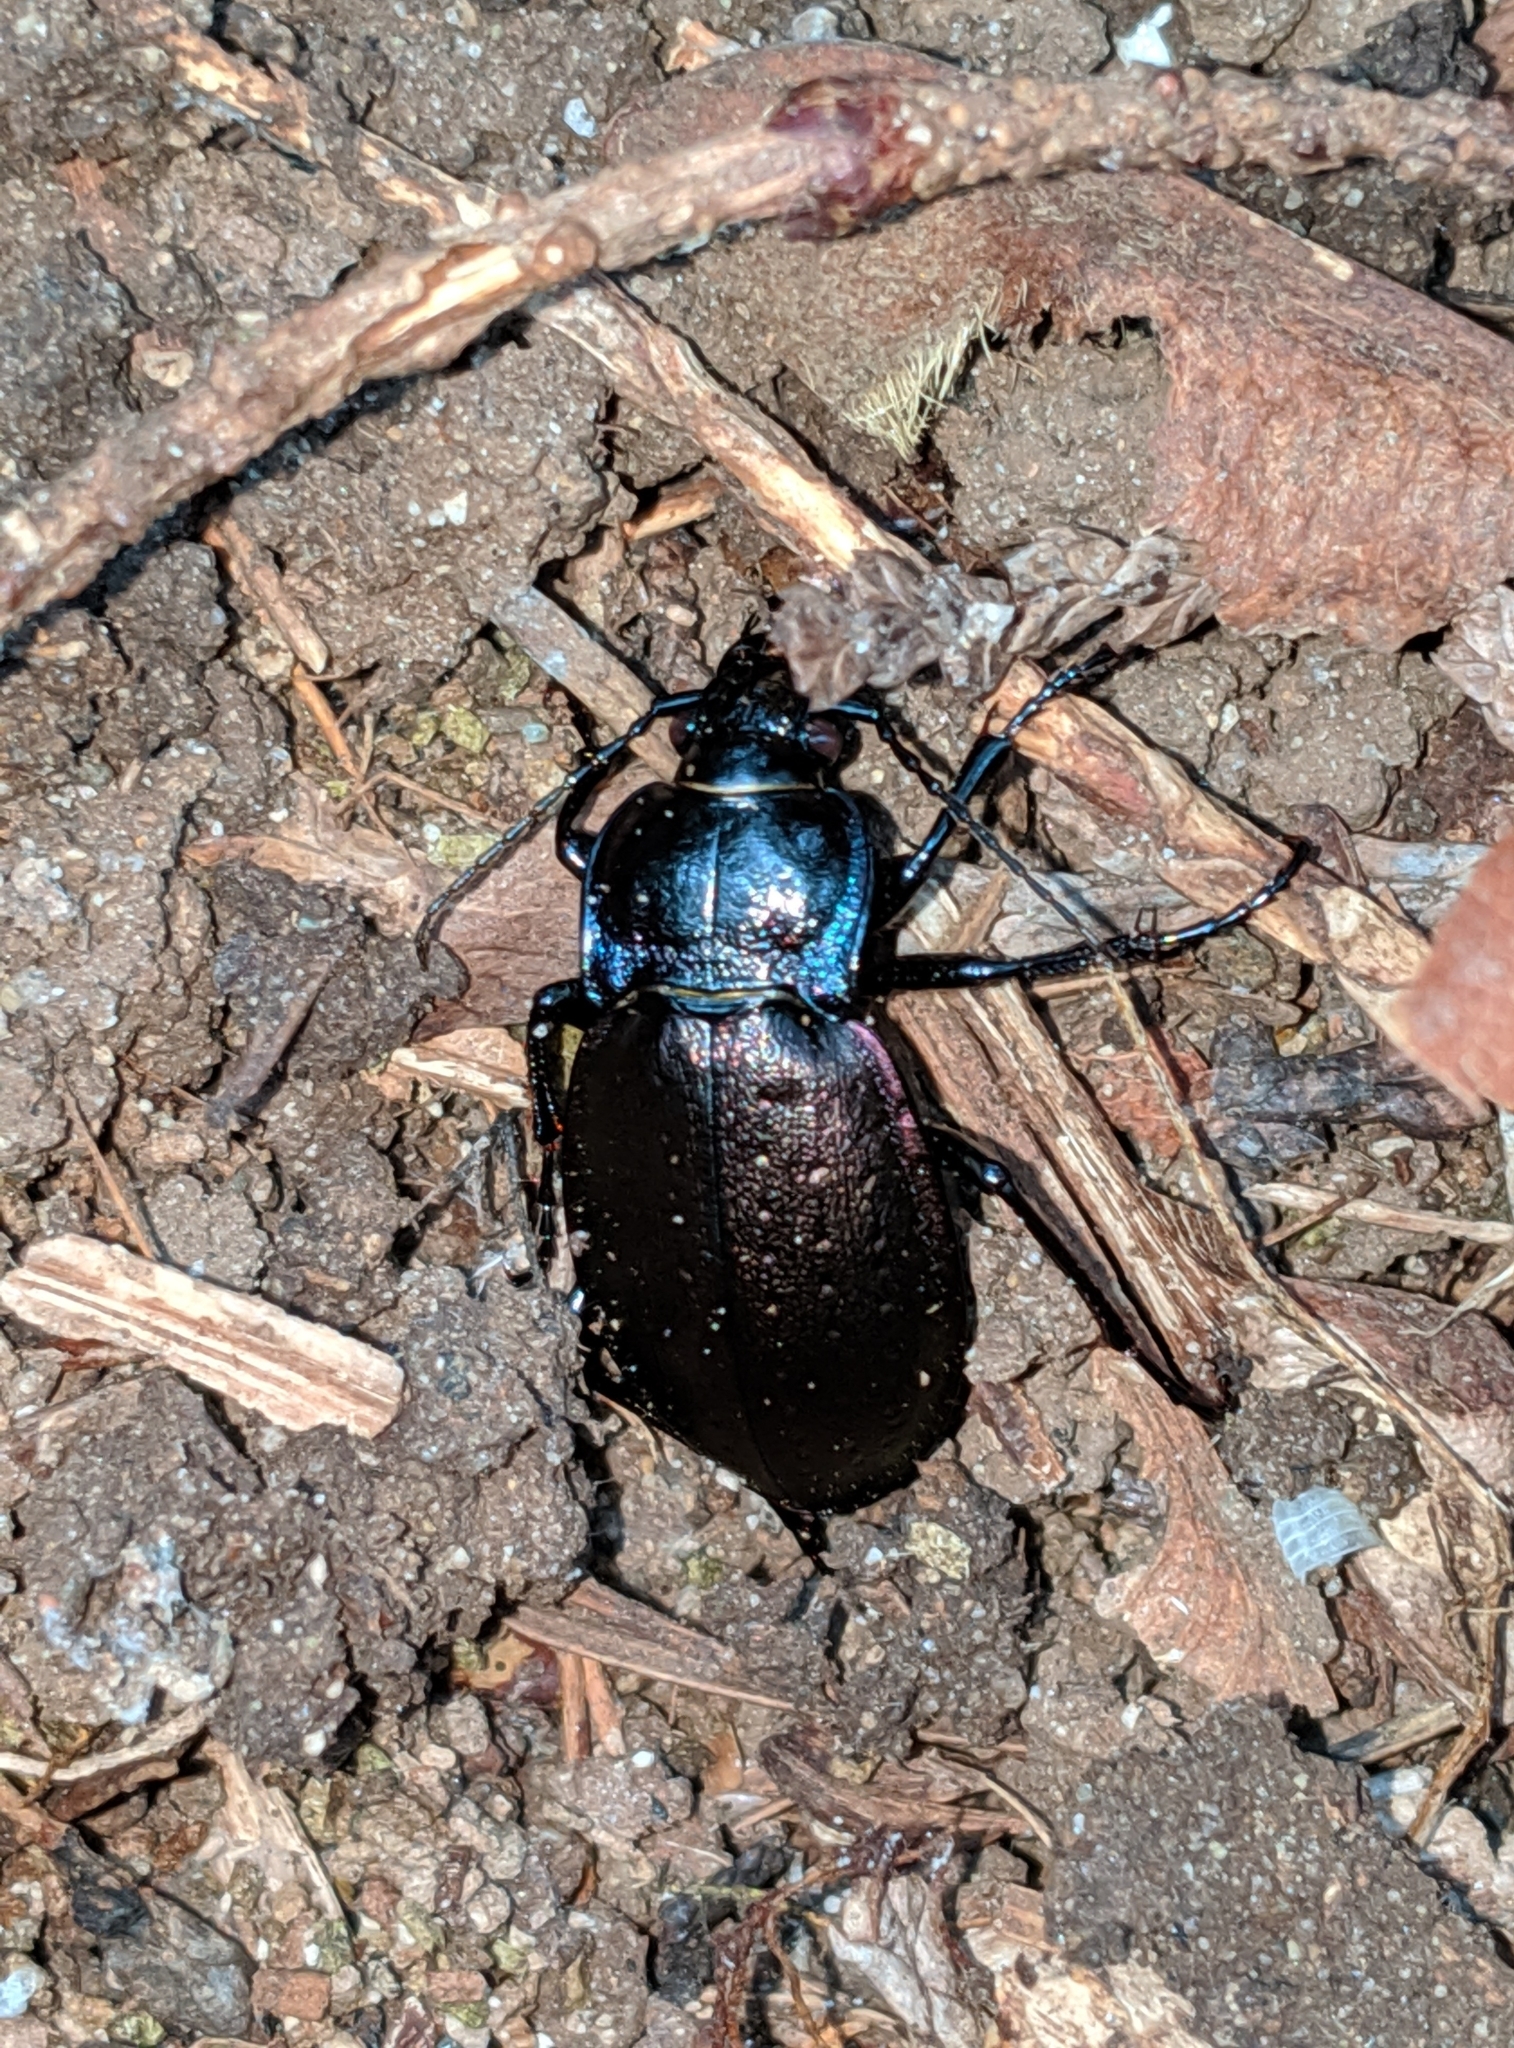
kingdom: Animalia
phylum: Arthropoda
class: Insecta
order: Coleoptera
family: Carabidae
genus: Carabus
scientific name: Carabus nemoralis
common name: European ground beetle
